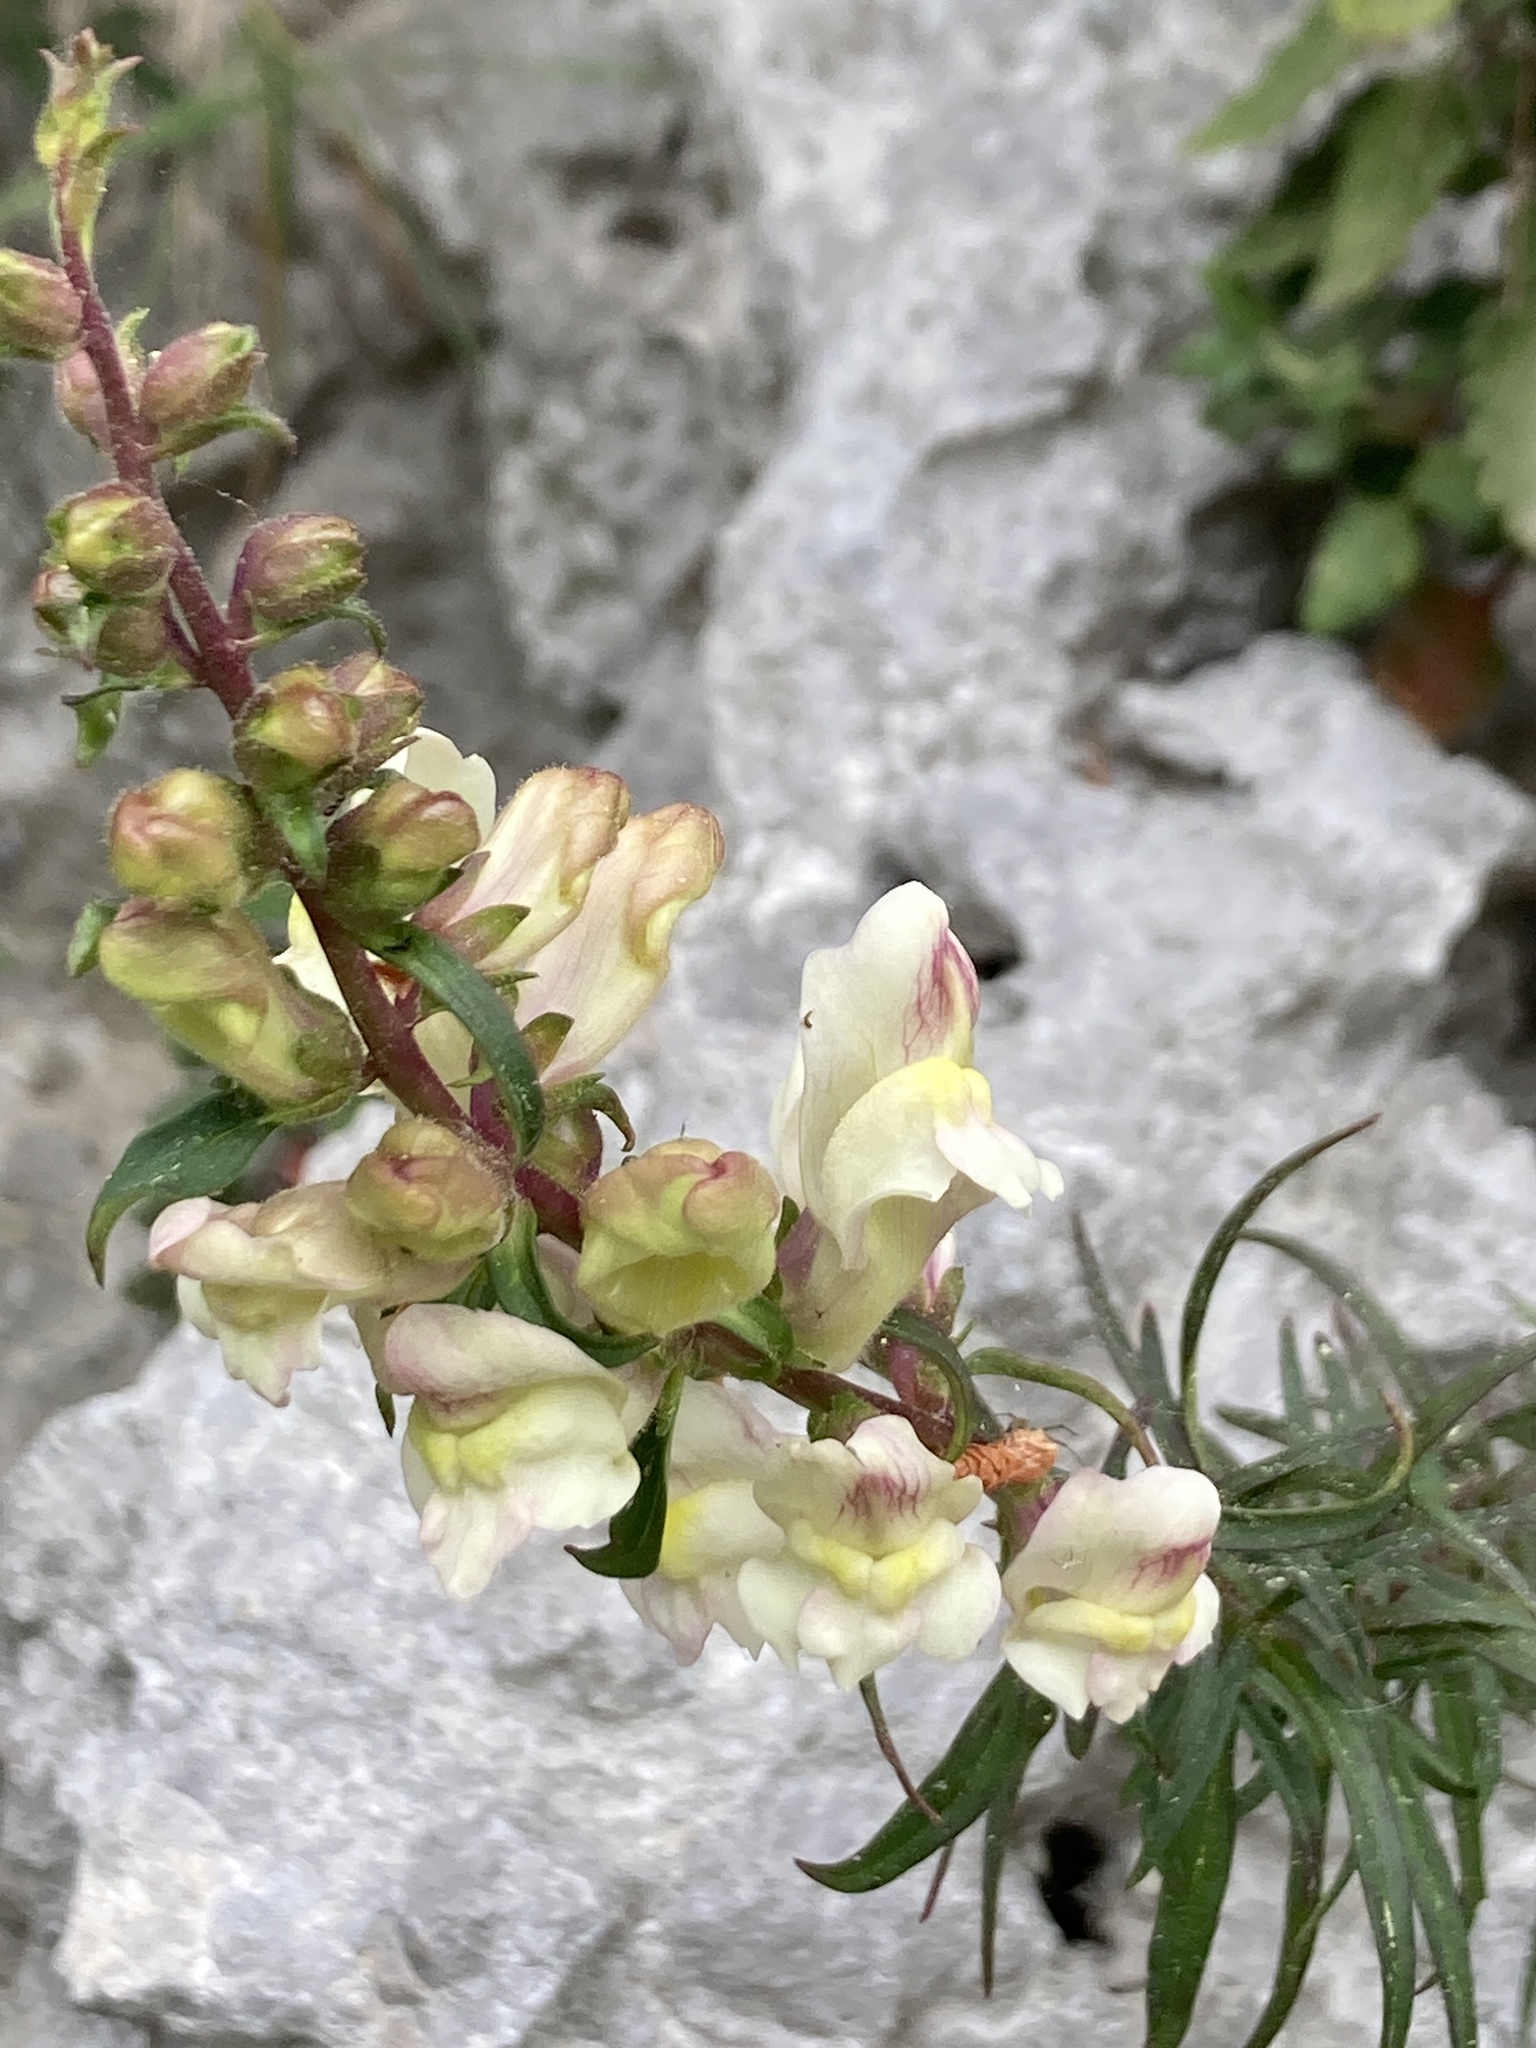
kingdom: Plantae
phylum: Tracheophyta
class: Magnoliopsida
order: Lamiales
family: Plantaginaceae
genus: Antirrhinum
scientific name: Antirrhinum siculum
